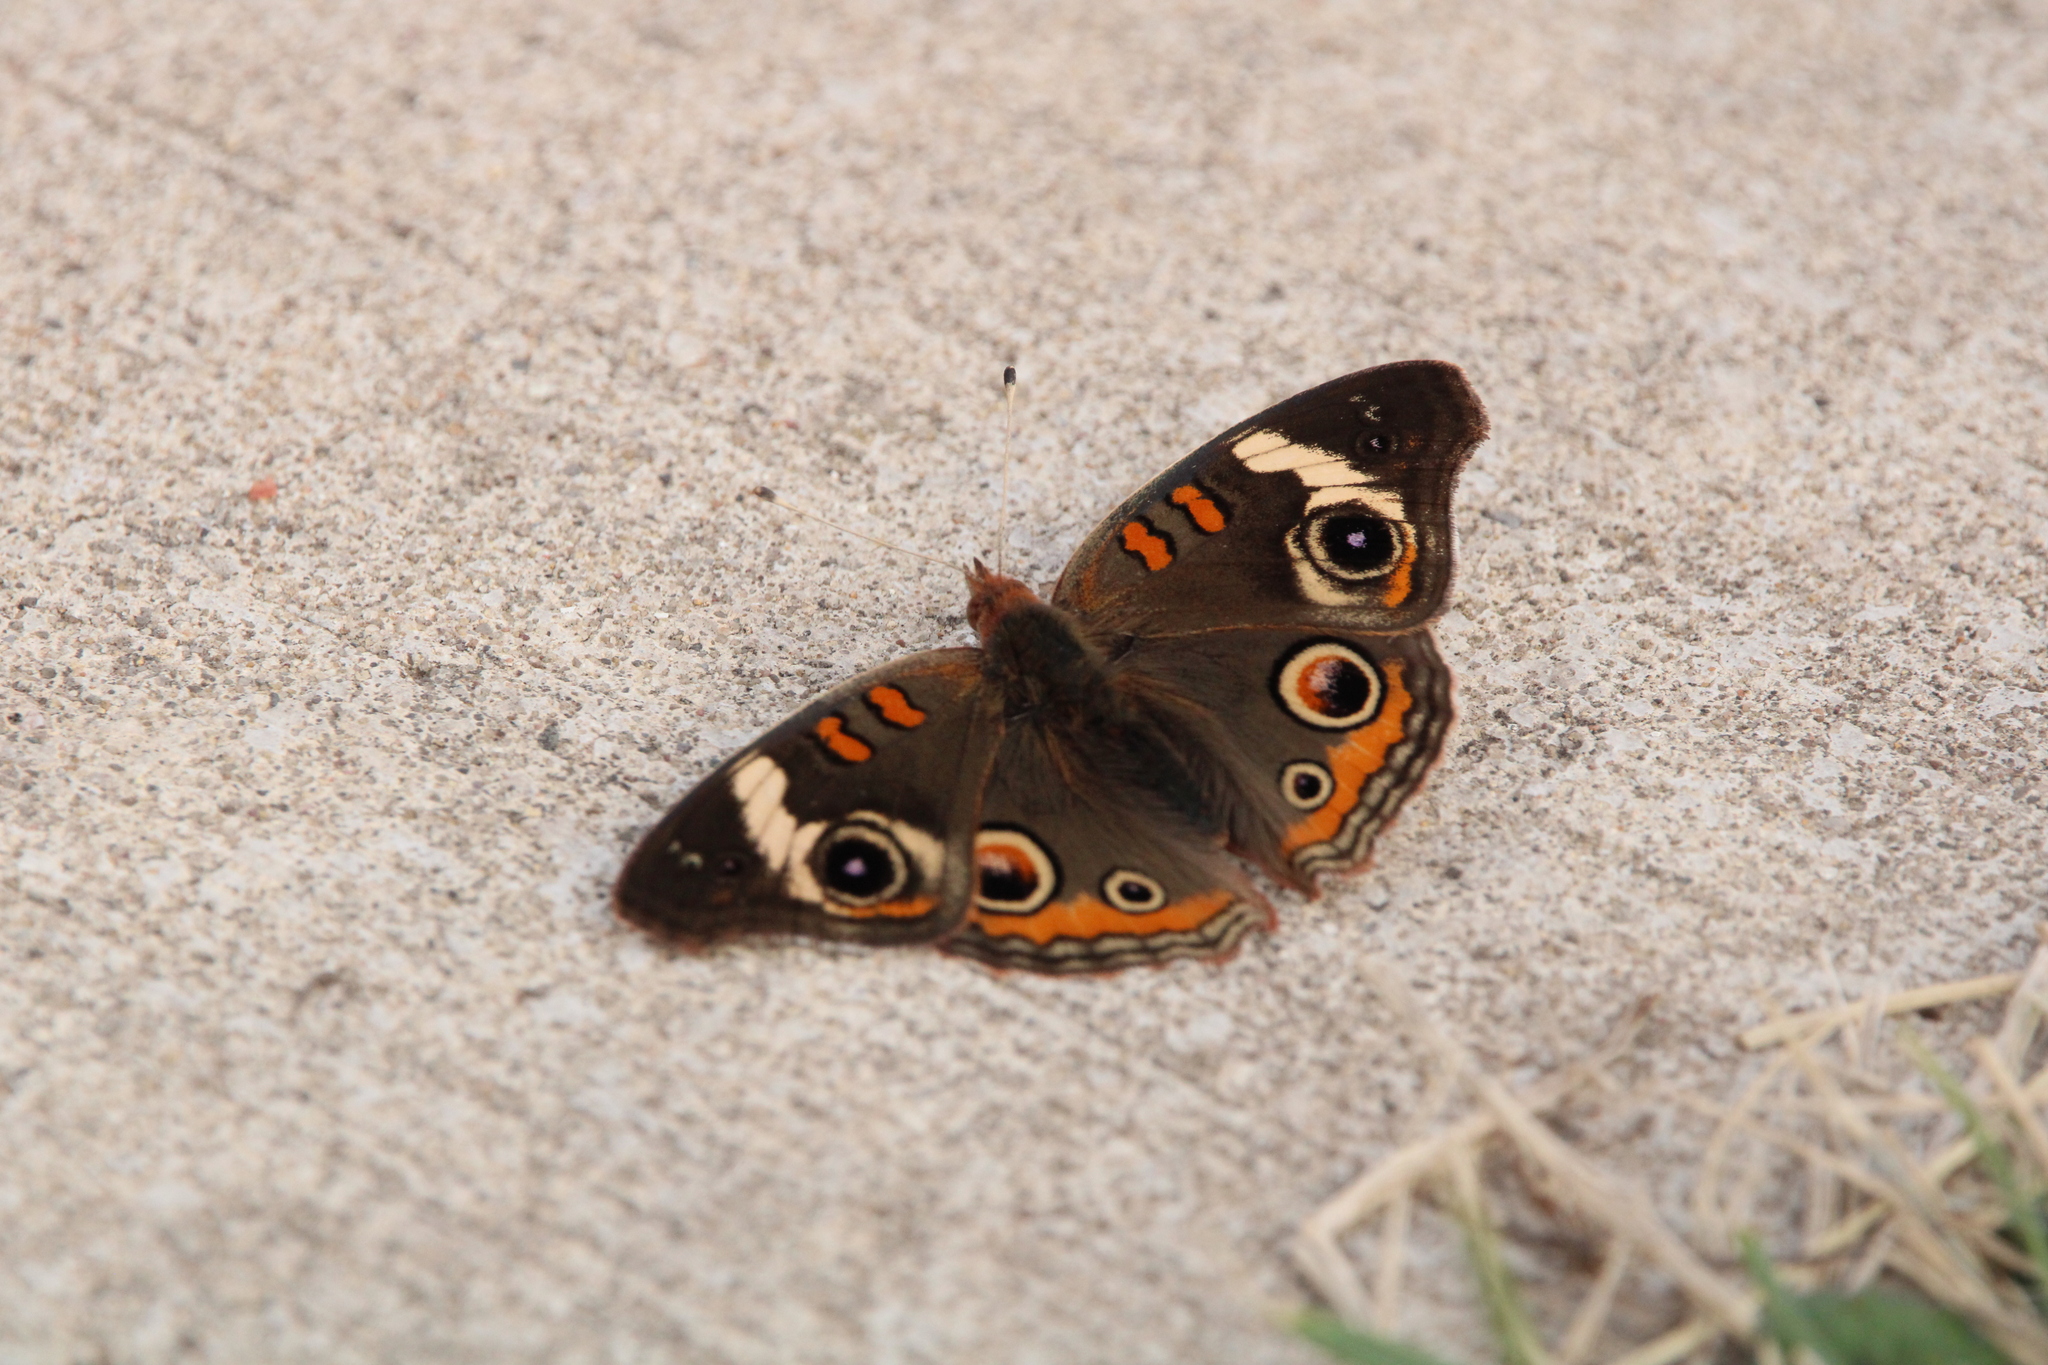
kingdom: Animalia
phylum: Arthropoda
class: Insecta
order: Lepidoptera
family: Nymphalidae
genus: Junonia
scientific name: Junonia coenia
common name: Common buckeye
